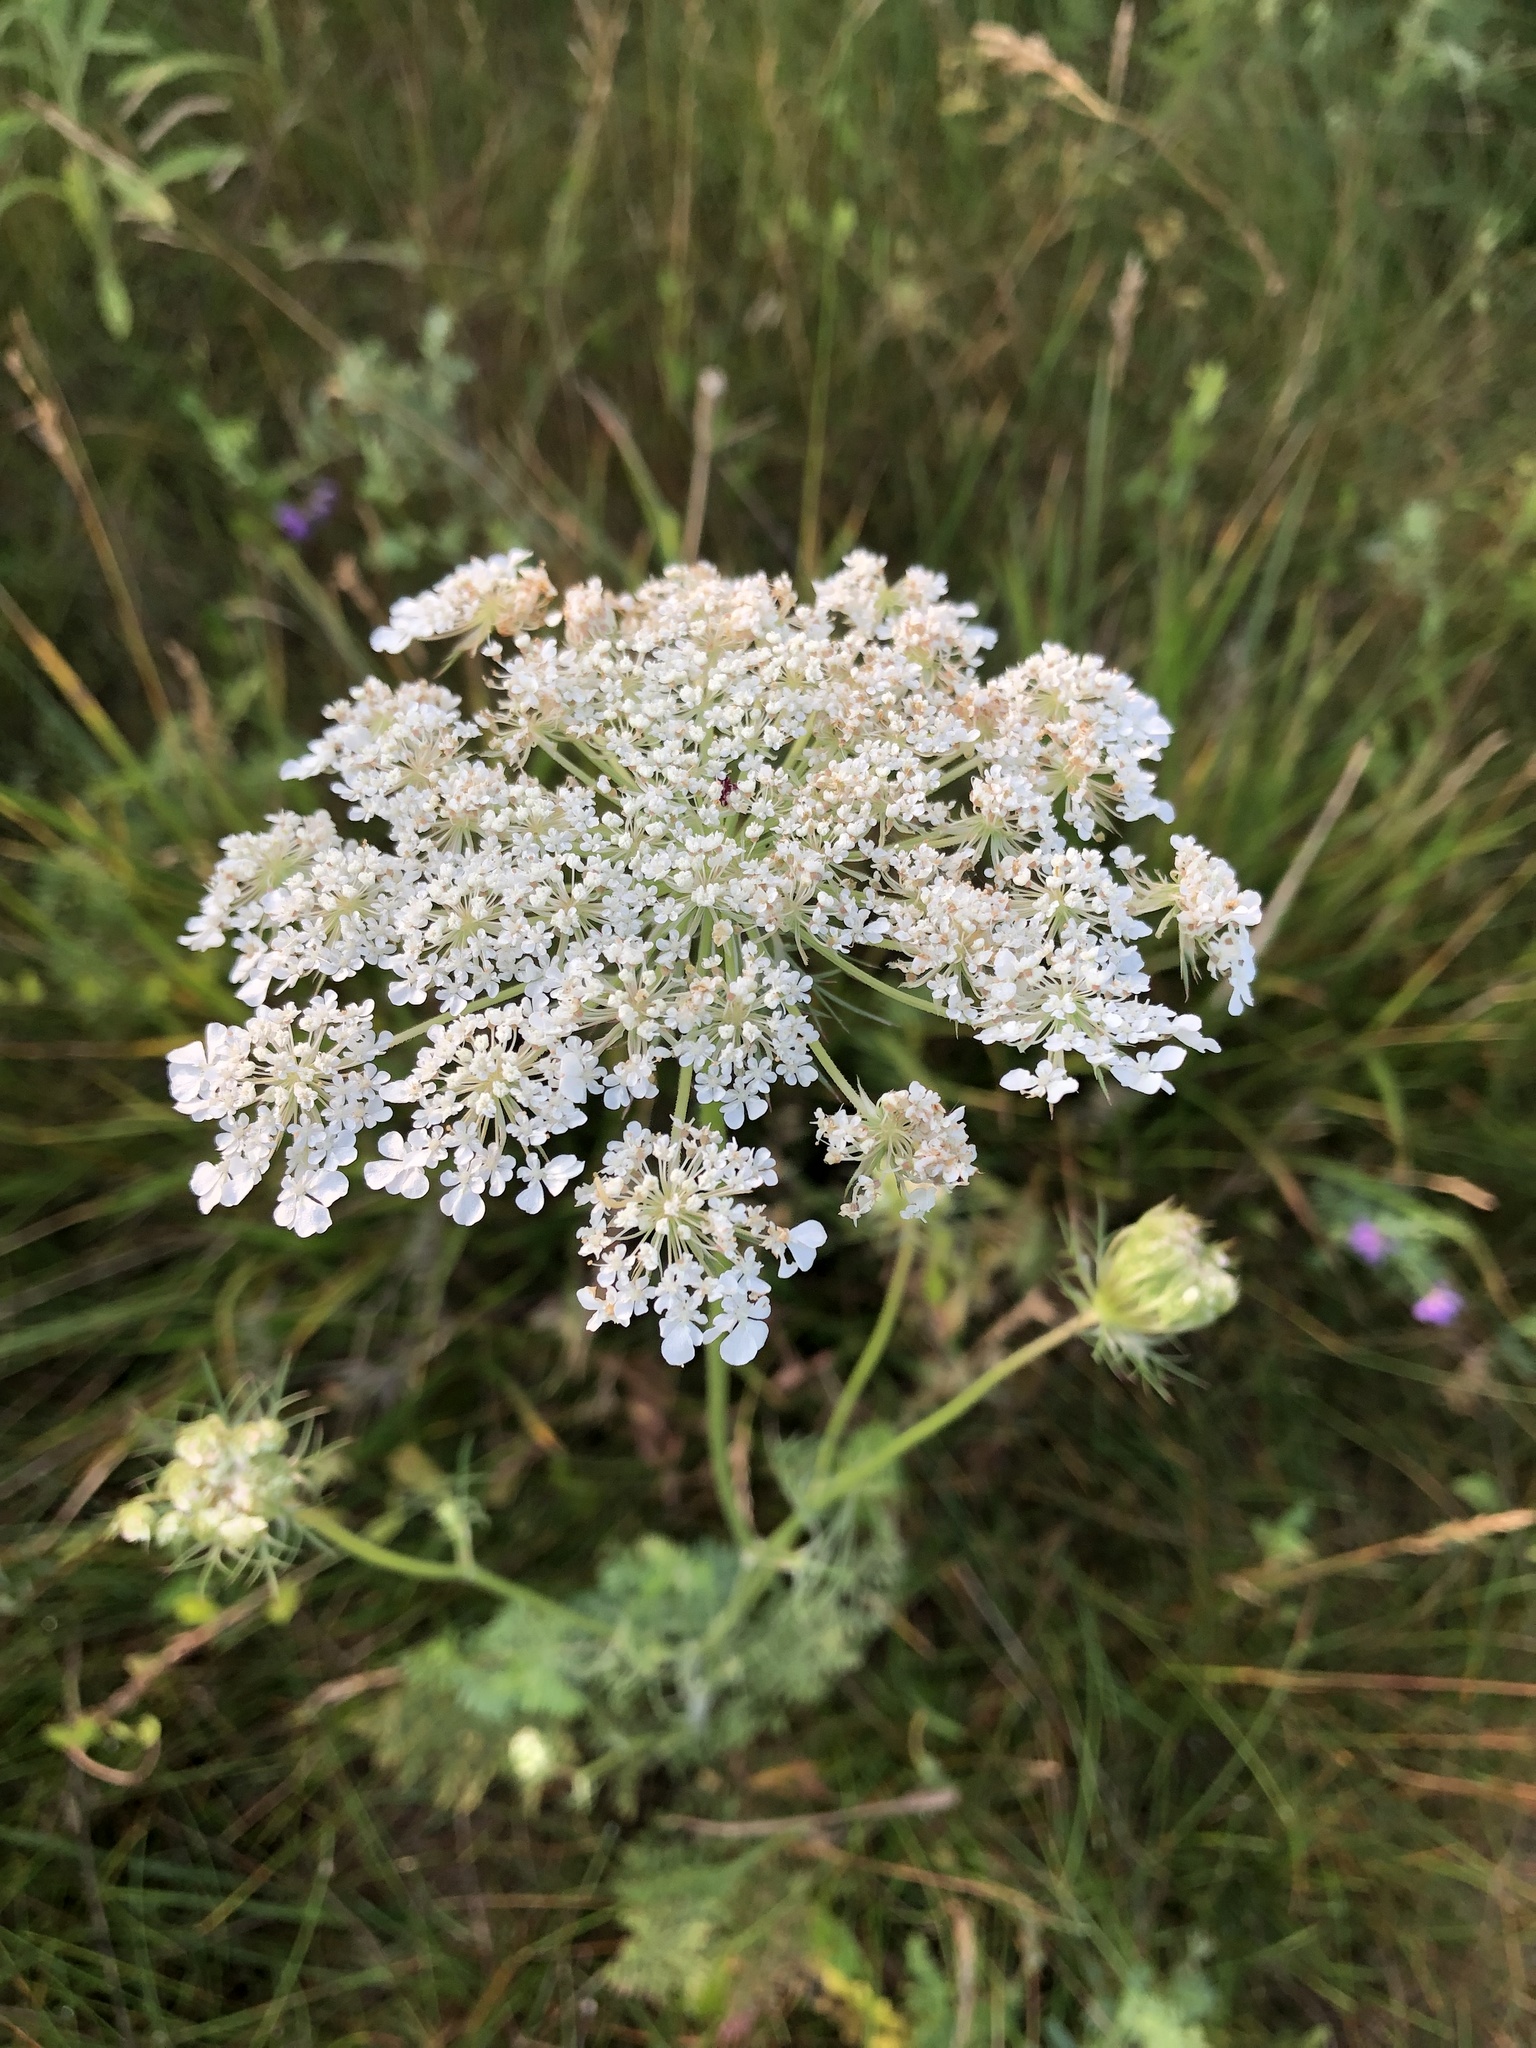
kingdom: Plantae
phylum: Tracheophyta
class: Magnoliopsida
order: Apiales
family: Apiaceae
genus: Daucus
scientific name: Daucus carota
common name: Wild carrot
